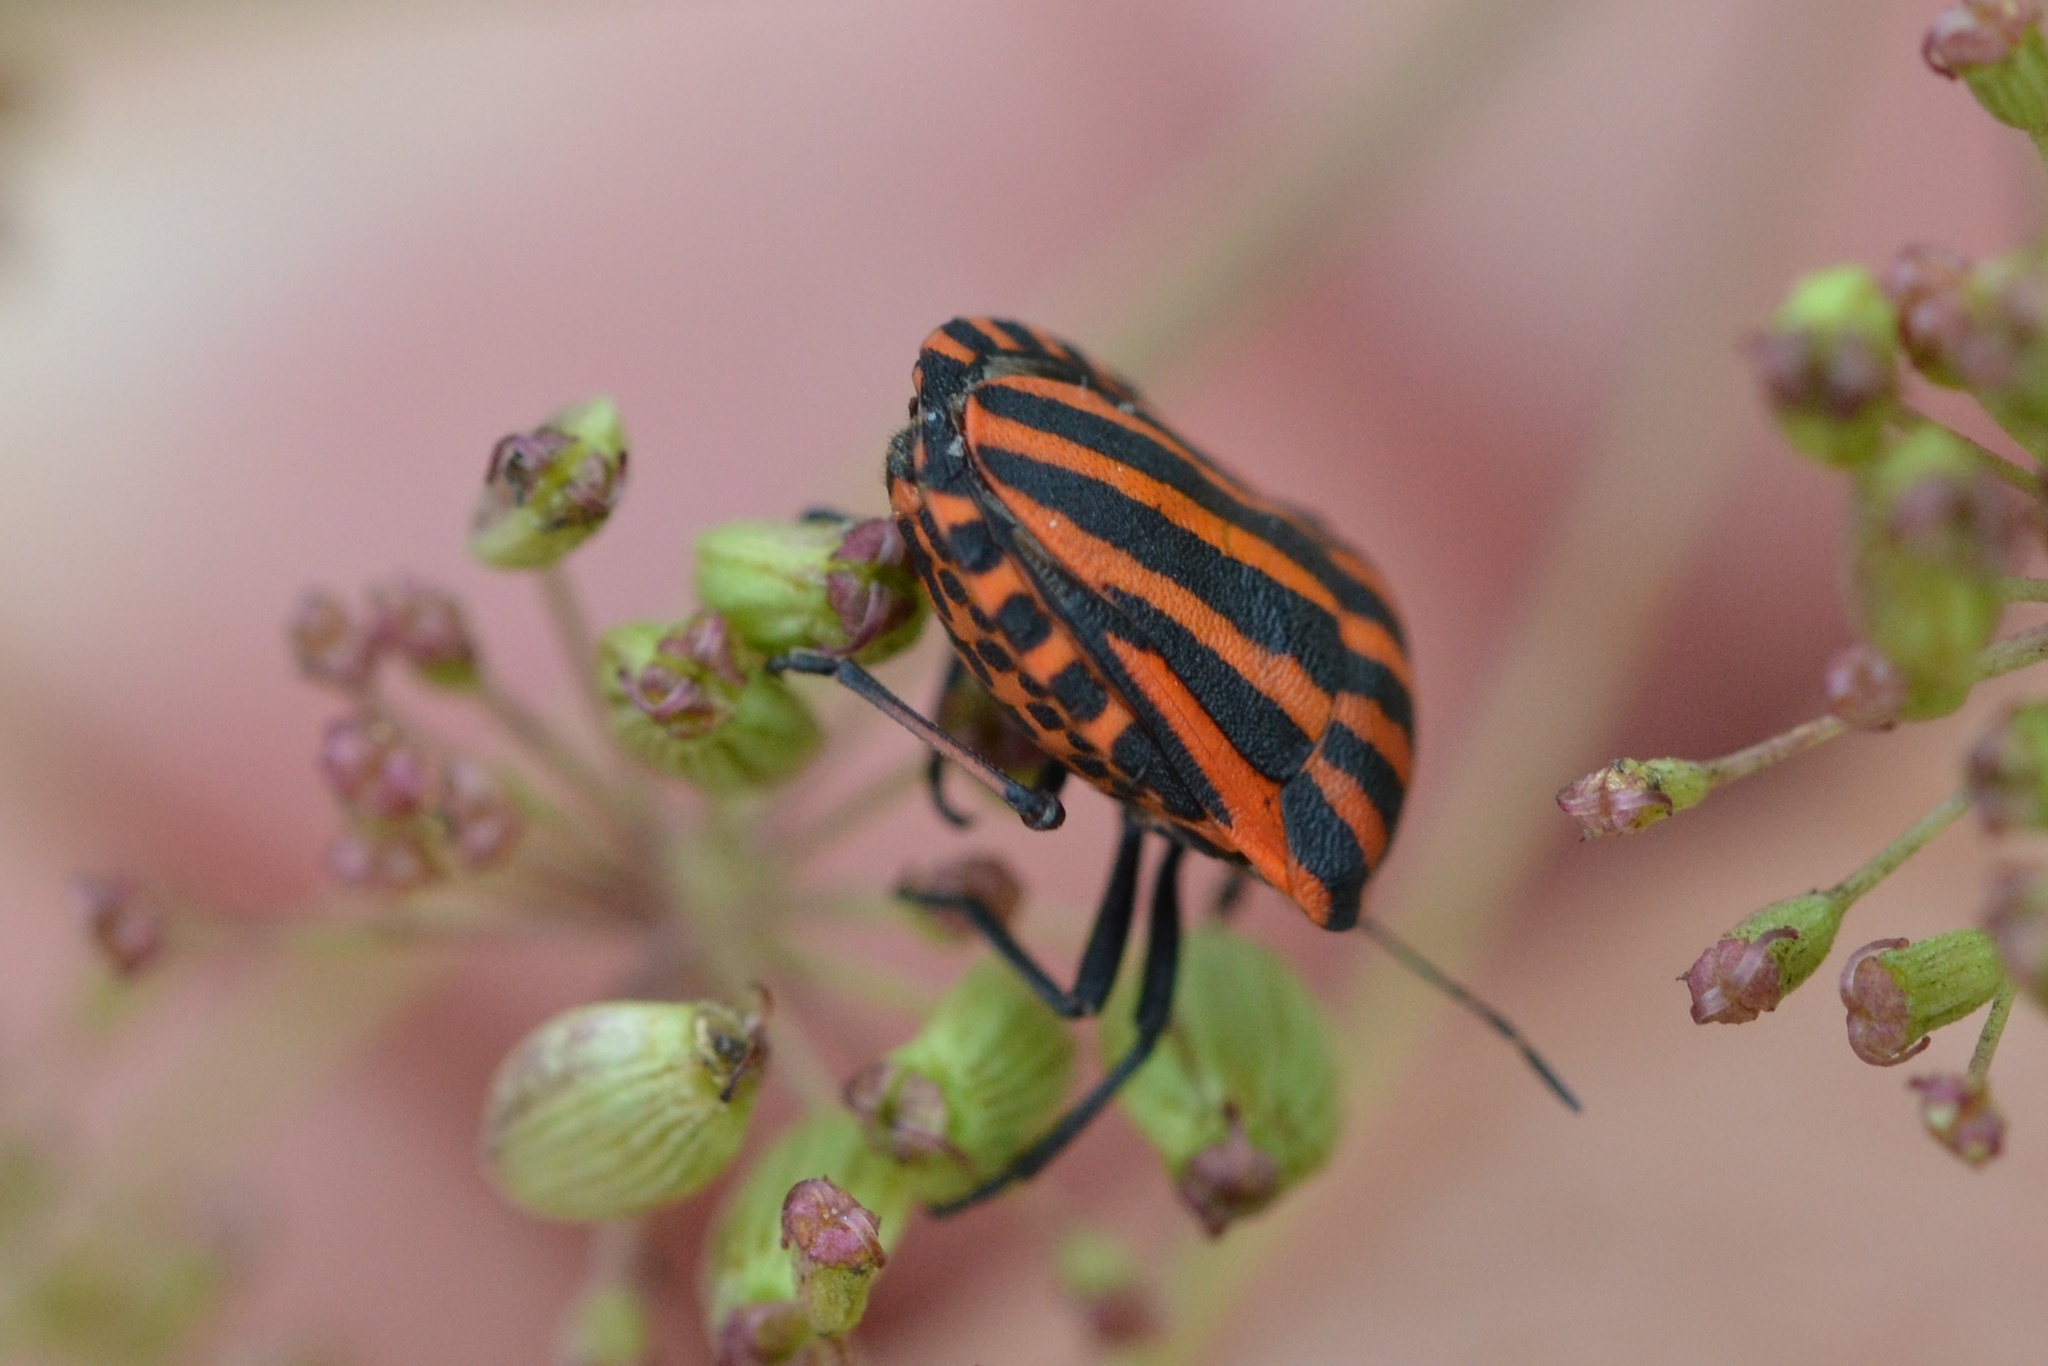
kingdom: Animalia
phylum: Arthropoda
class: Insecta
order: Hemiptera
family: Pentatomidae
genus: Graphosoma
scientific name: Graphosoma italicum
